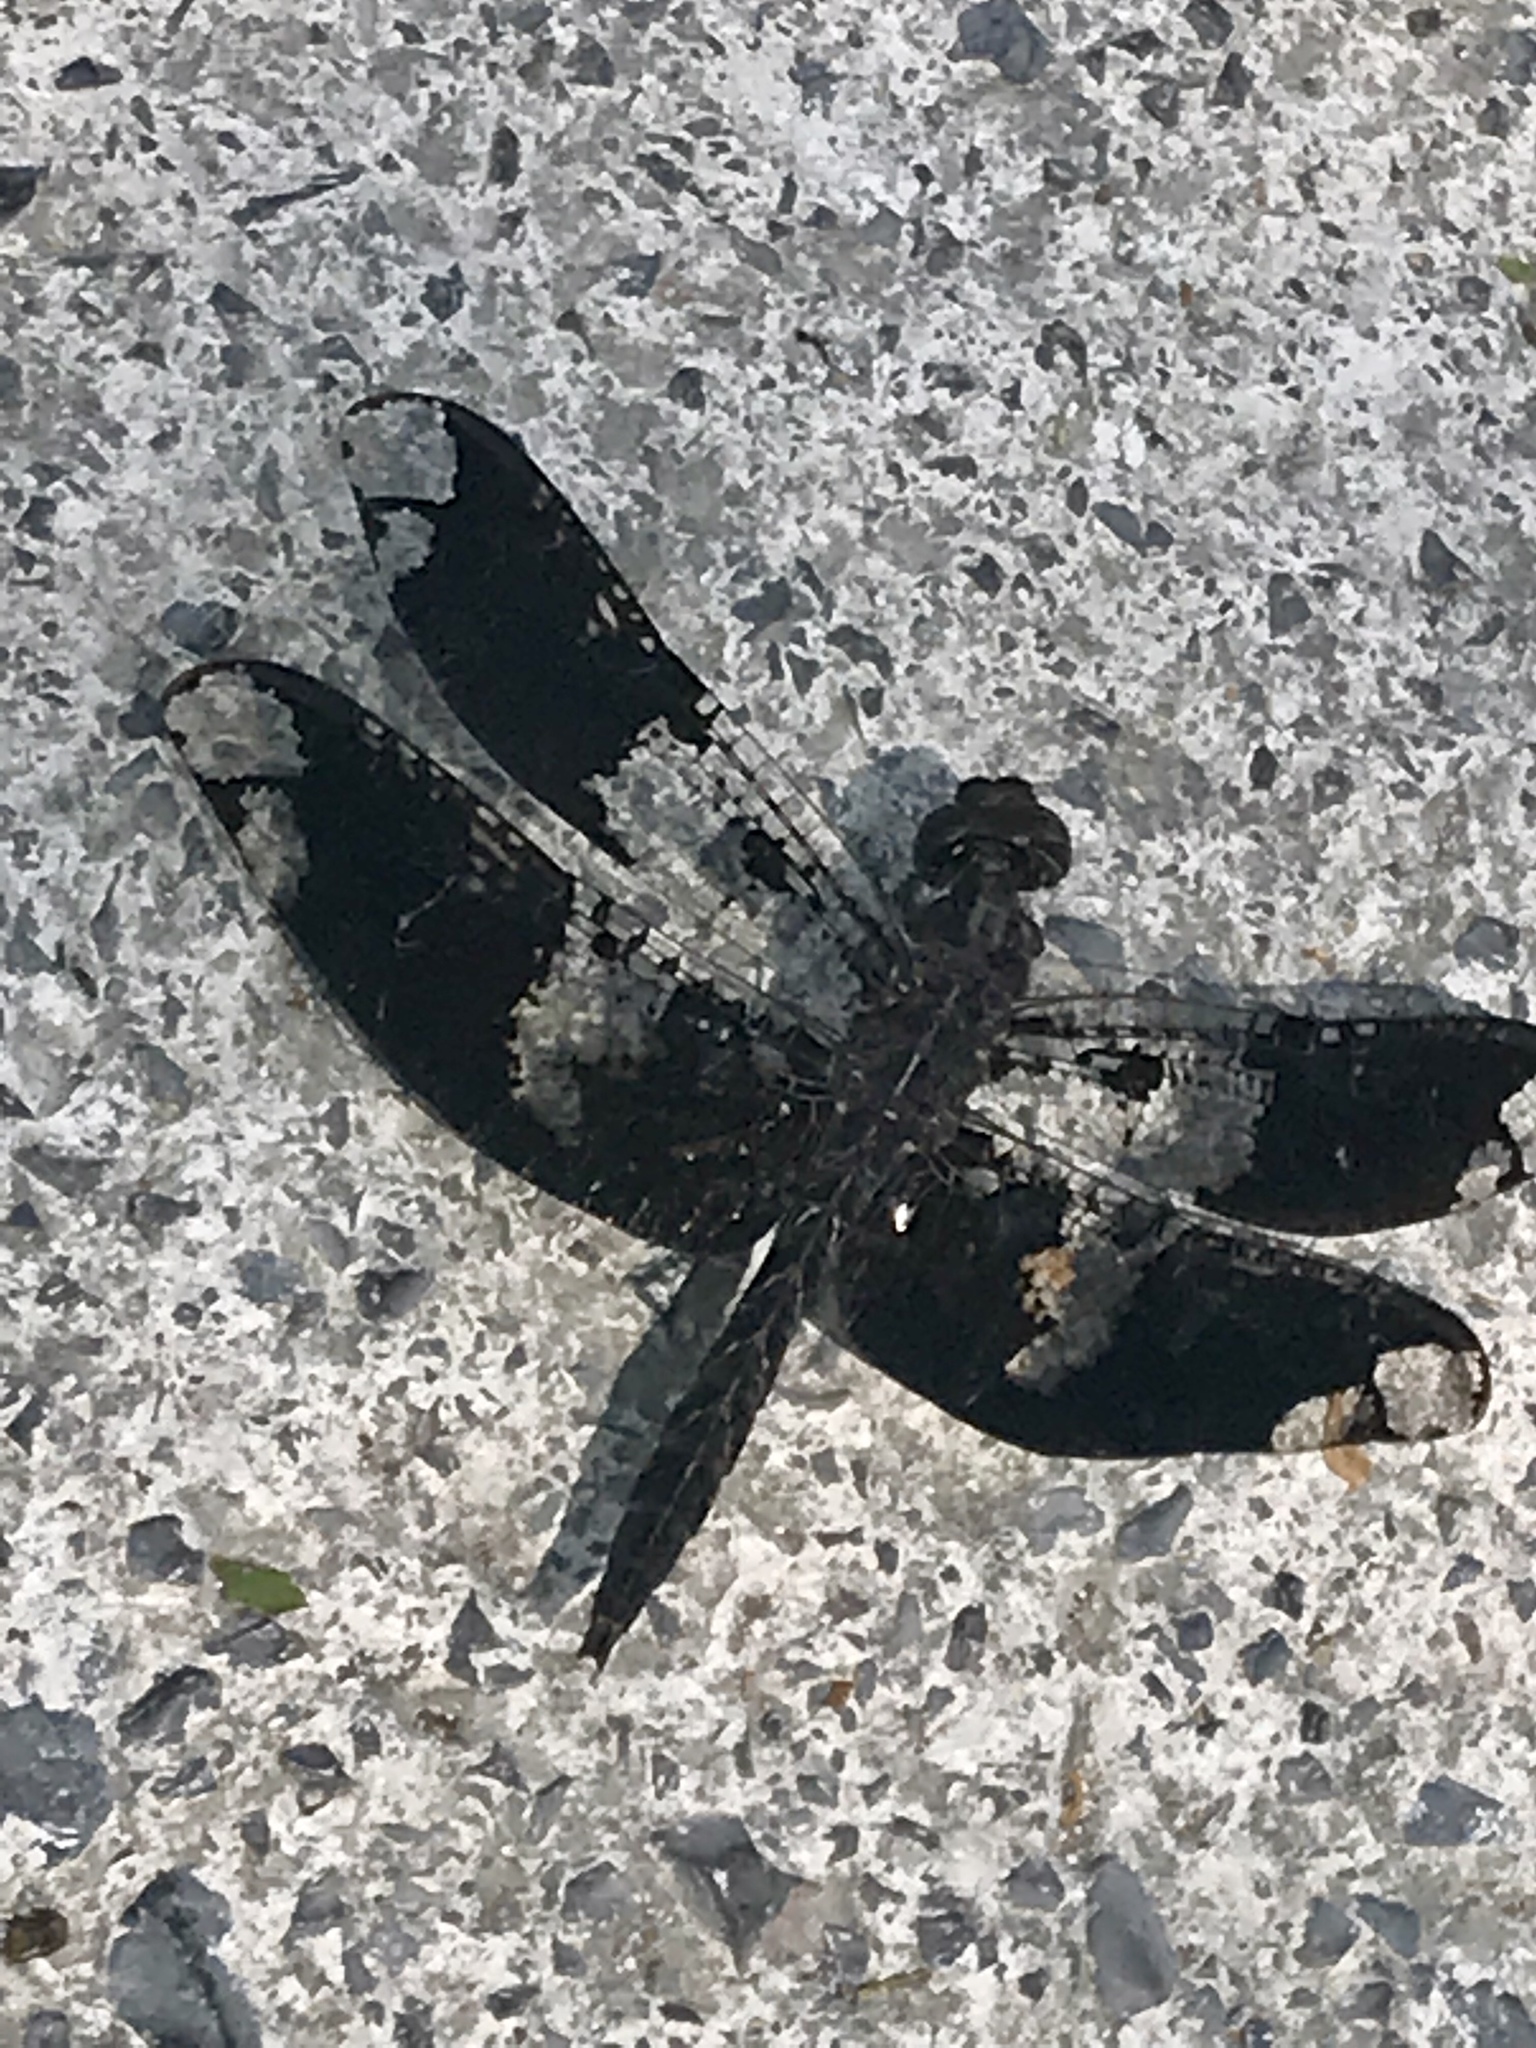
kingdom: Animalia
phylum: Arthropoda
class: Insecta
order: Odonata
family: Libellulidae
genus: Pseudoleon
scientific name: Pseudoleon superbus
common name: Filigree skimmer
